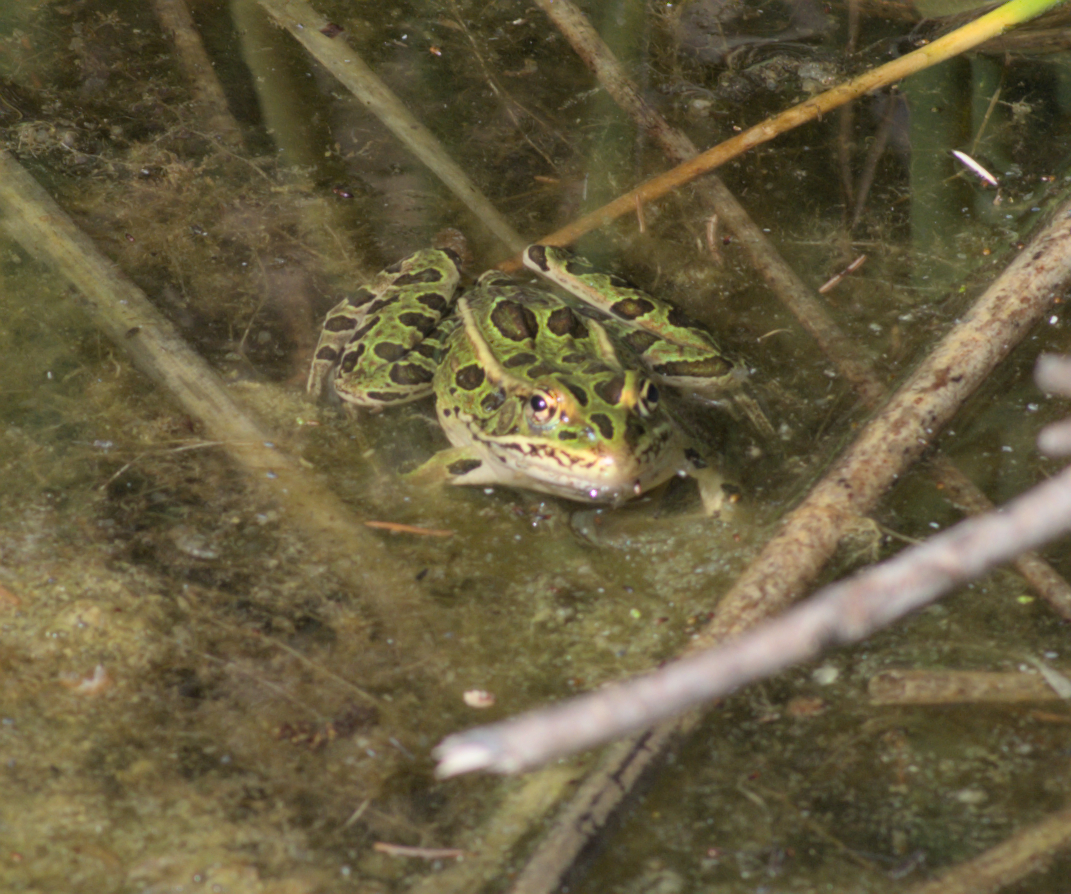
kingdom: Animalia
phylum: Chordata
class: Amphibia
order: Anura
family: Ranidae
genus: Lithobates
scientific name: Lithobates pipiens
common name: Northern leopard frog
